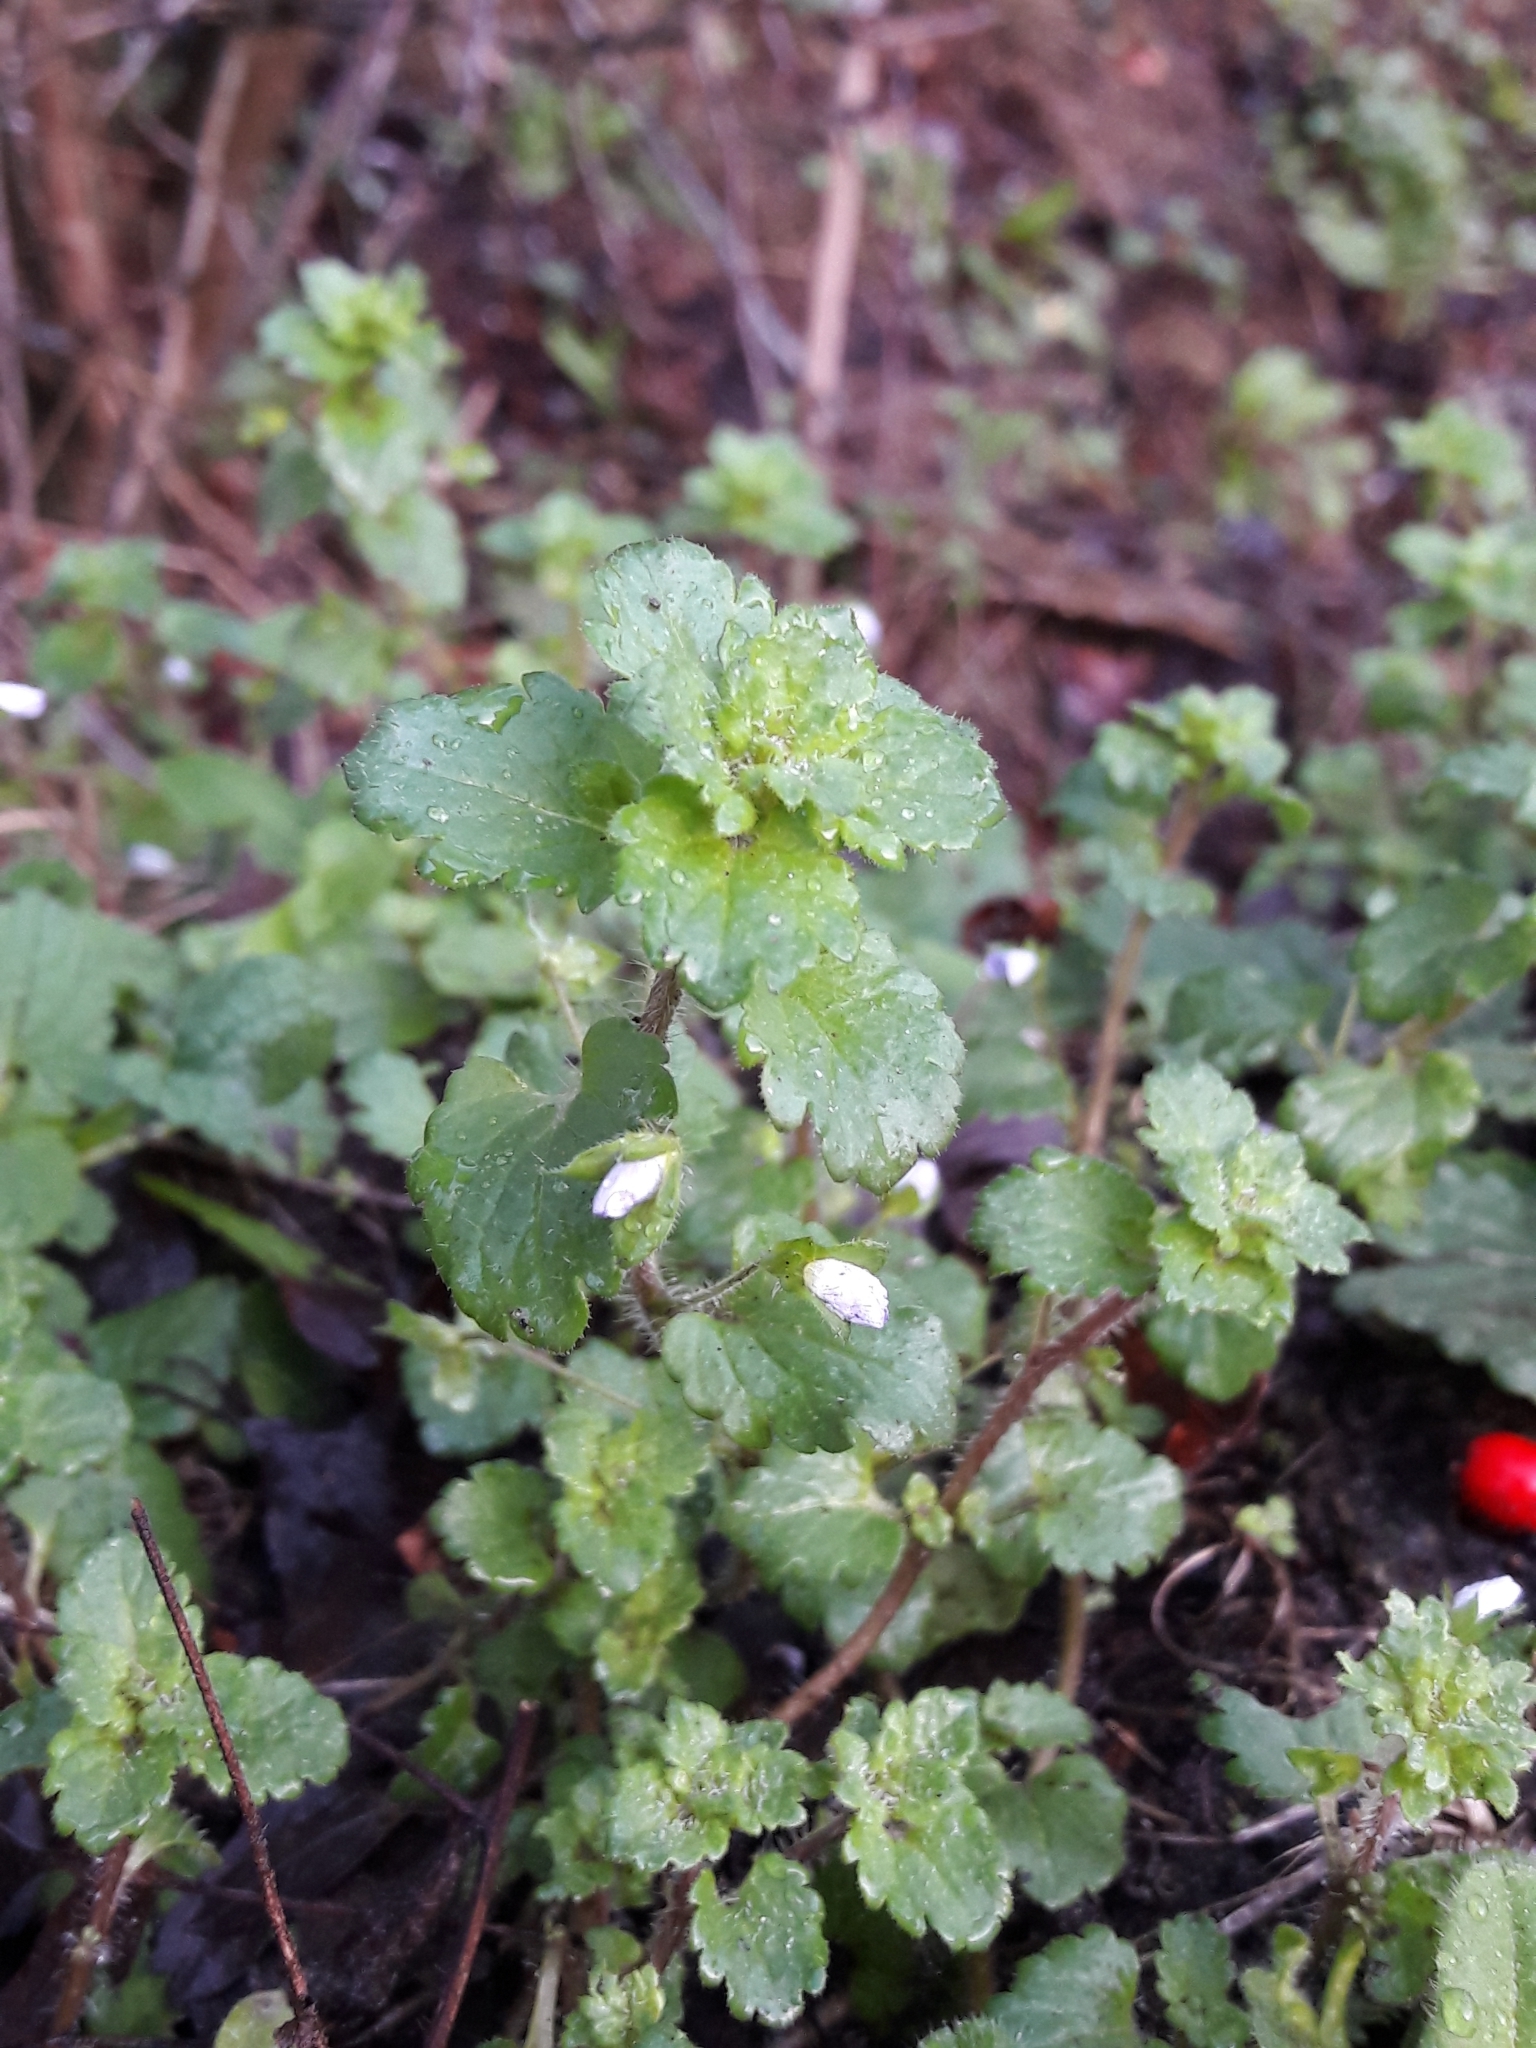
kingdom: Plantae
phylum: Tracheophyta
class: Magnoliopsida
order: Lamiales
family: Plantaginaceae
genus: Veronica
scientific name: Veronica persica
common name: Common field-speedwell
